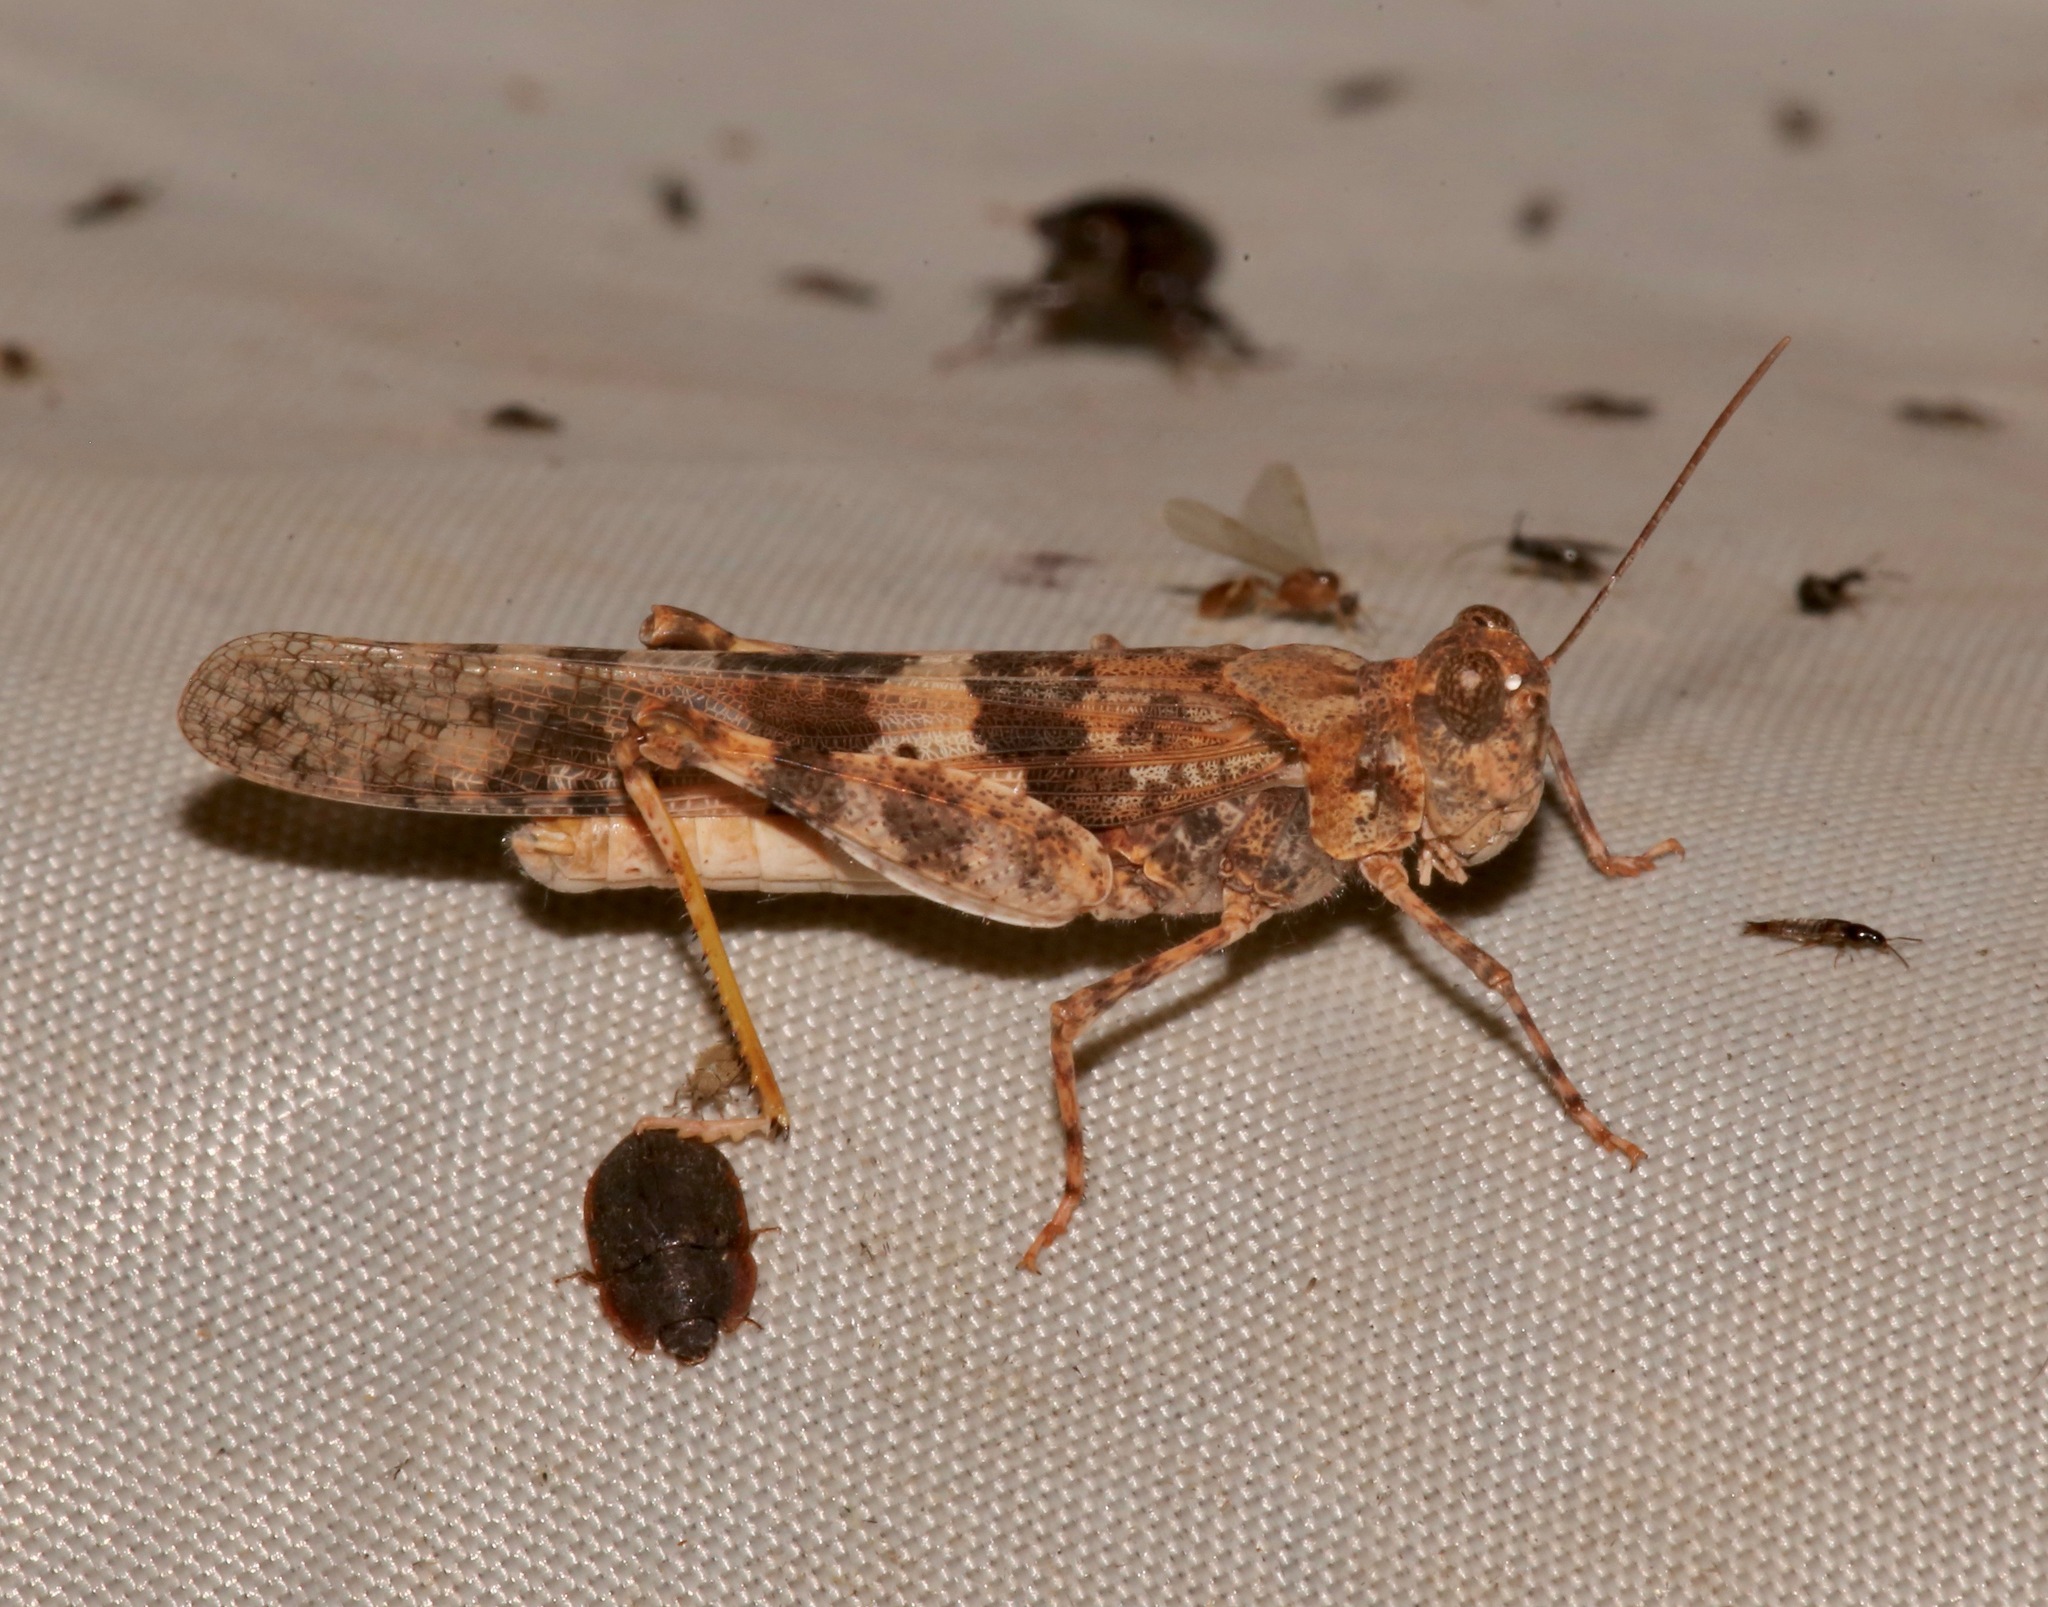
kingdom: Animalia
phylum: Arthropoda
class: Insecta
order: Orthoptera
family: Acrididae
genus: Trimerotropis
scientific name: Trimerotropis pallidipennis
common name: Pallid-winged grasshopper
